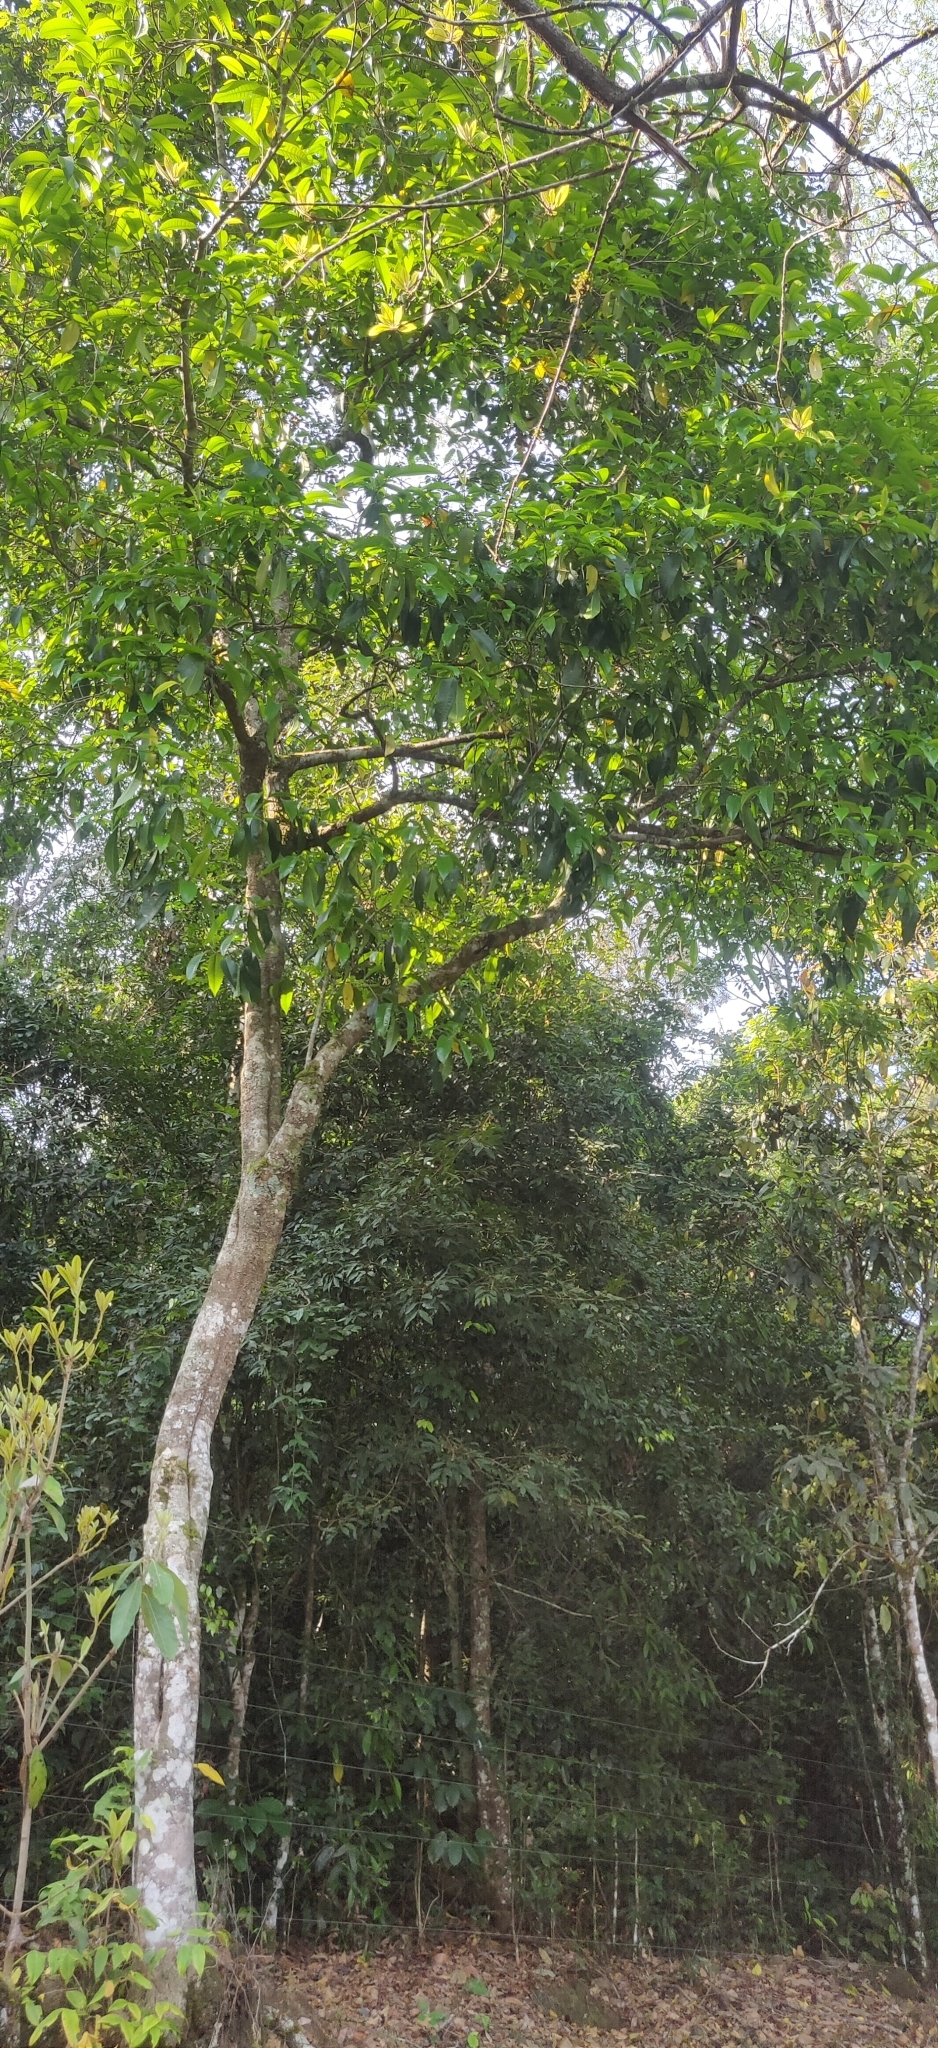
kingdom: Plantae
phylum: Tracheophyta
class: Magnoliopsida
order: Malpighiales
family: Euphorbiaceae
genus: Excoecaria
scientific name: Excoecaria oppositifolia
